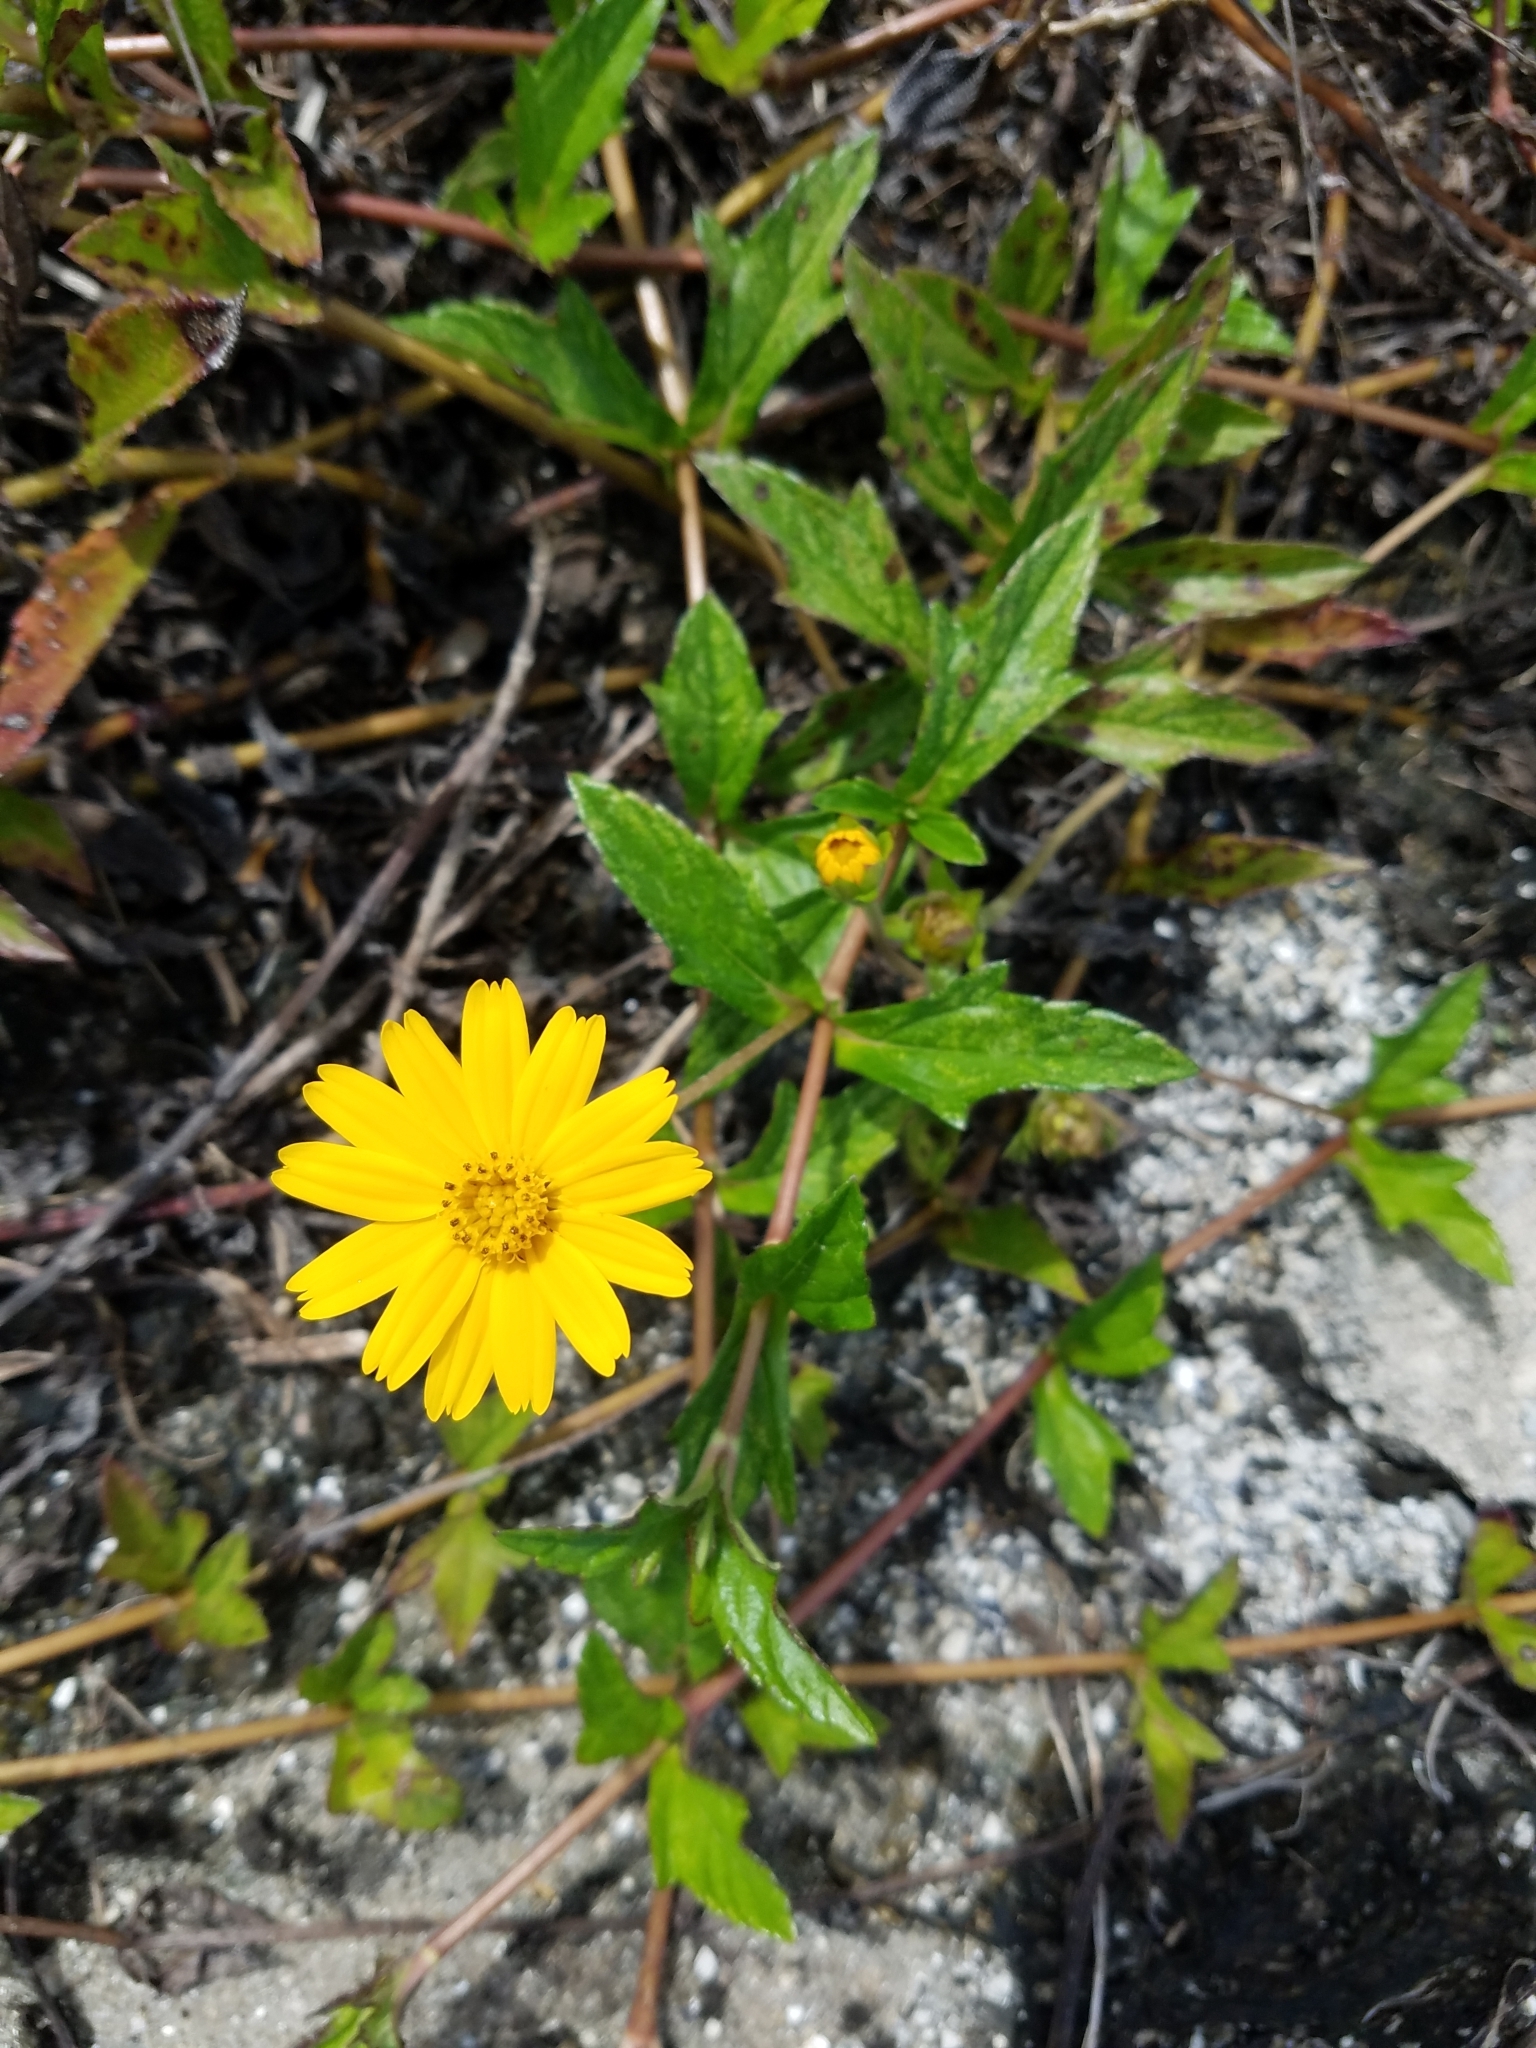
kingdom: Plantae
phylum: Tracheophyta
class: Magnoliopsida
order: Asterales
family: Asteraceae
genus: Sphagneticola
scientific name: Sphagneticola trilobata
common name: Bay biscayne creeping-oxeye
